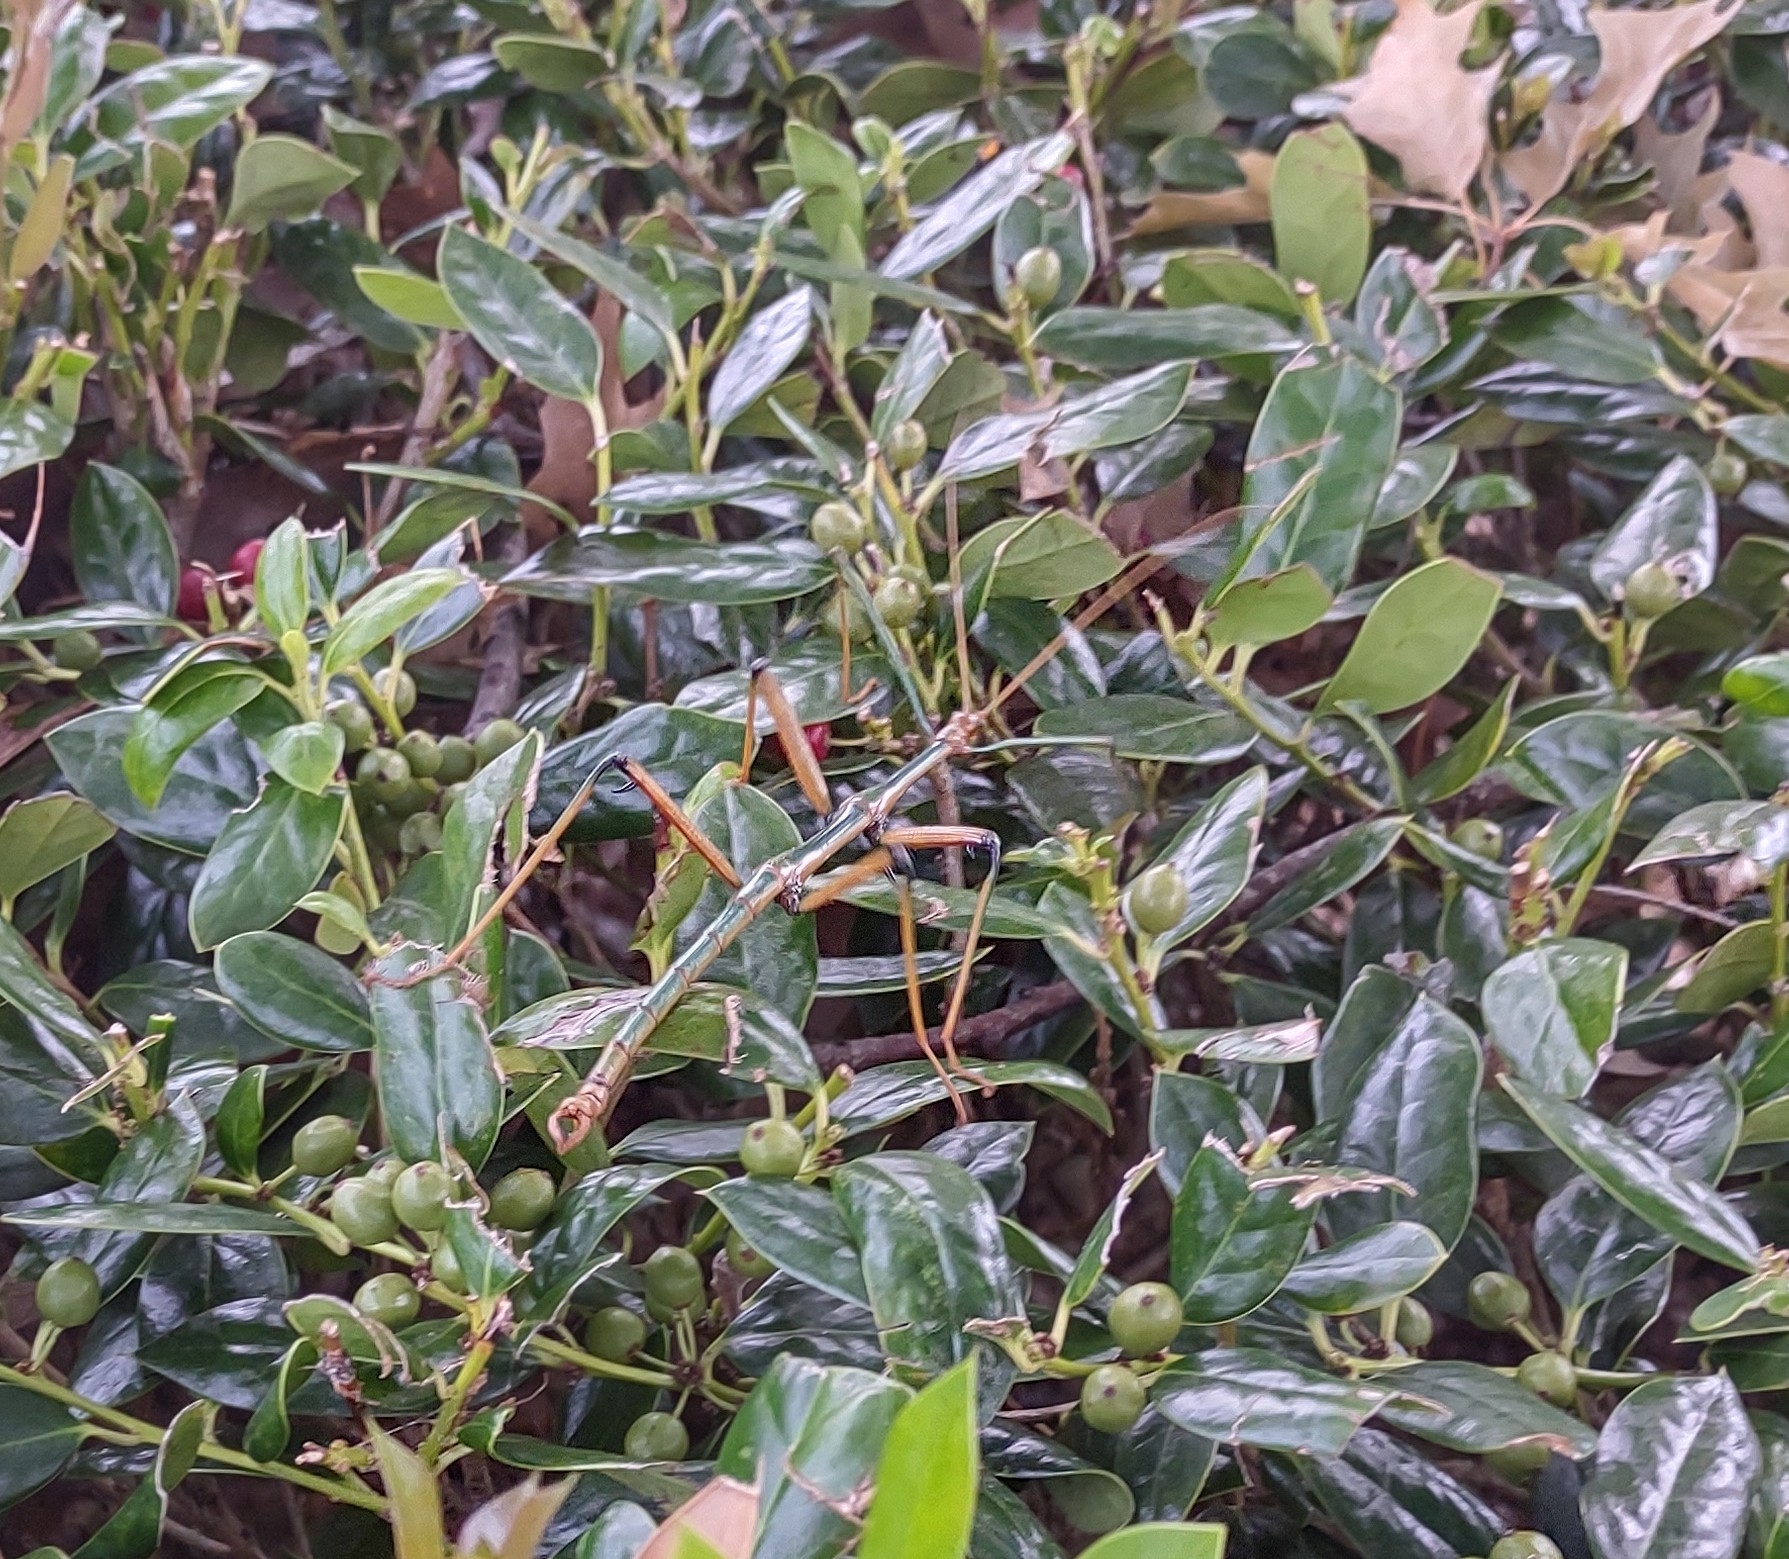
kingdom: Animalia
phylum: Arthropoda
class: Insecta
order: Phasmida
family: Diapheromeridae
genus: Megaphasma
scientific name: Megaphasma denticrus
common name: Giant walkingstick
